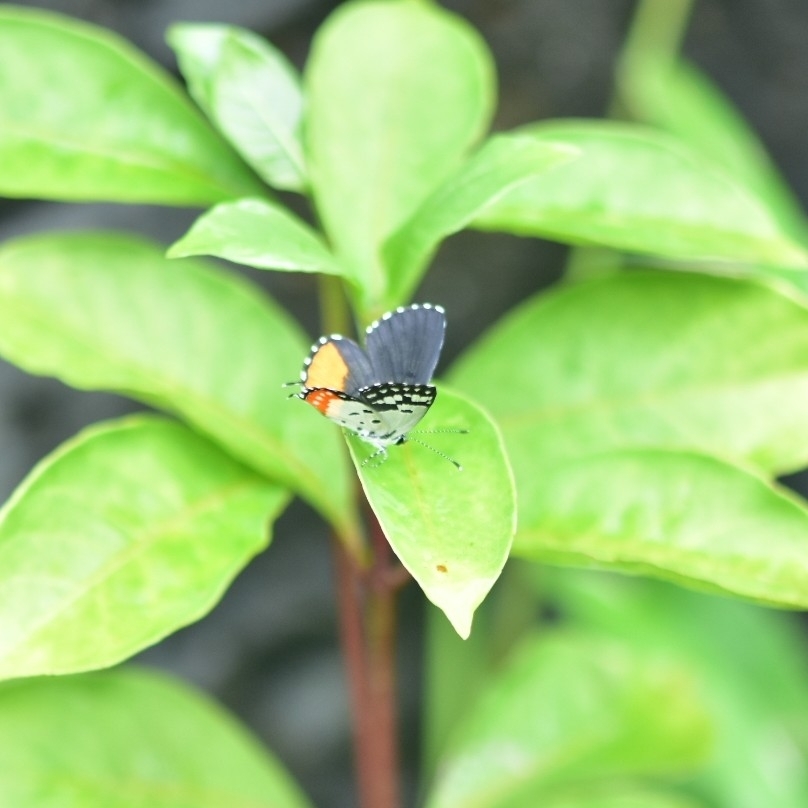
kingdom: Animalia
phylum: Arthropoda
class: Insecta
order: Lepidoptera
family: Lycaenidae
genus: Talicada
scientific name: Talicada nyseus
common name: Red pierrot
